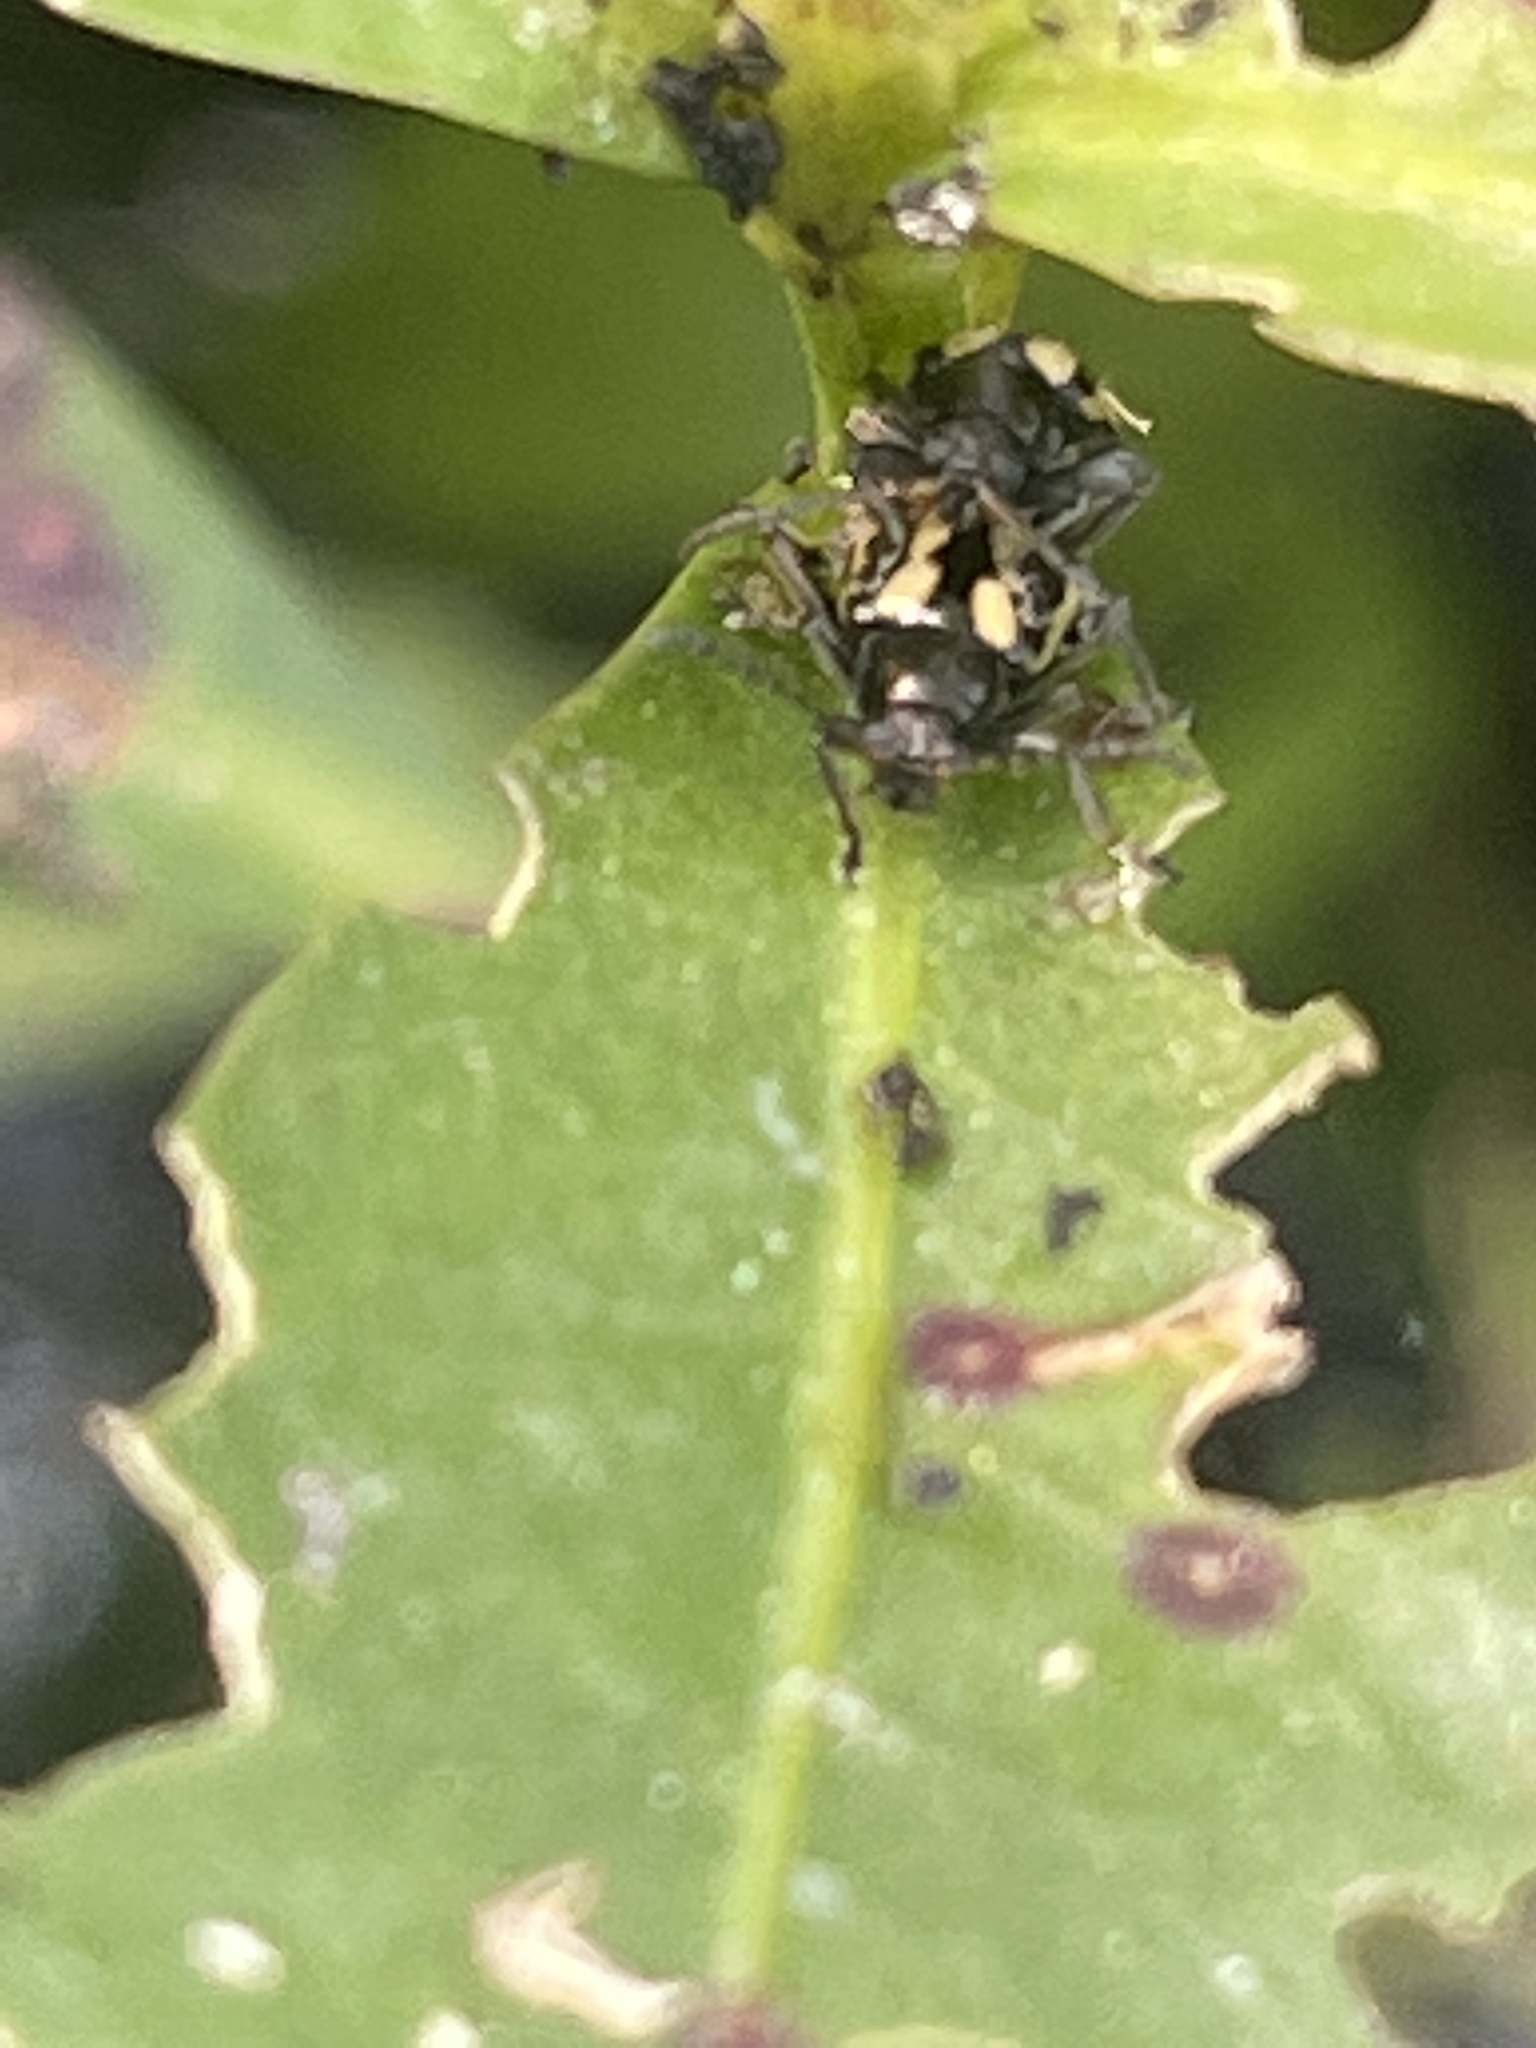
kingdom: Animalia
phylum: Arthropoda
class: Insecta
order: Coleoptera
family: Chrysomelidae
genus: Agasicles
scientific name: Agasicles hygrophila
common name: Alligatorweed flea beetle
